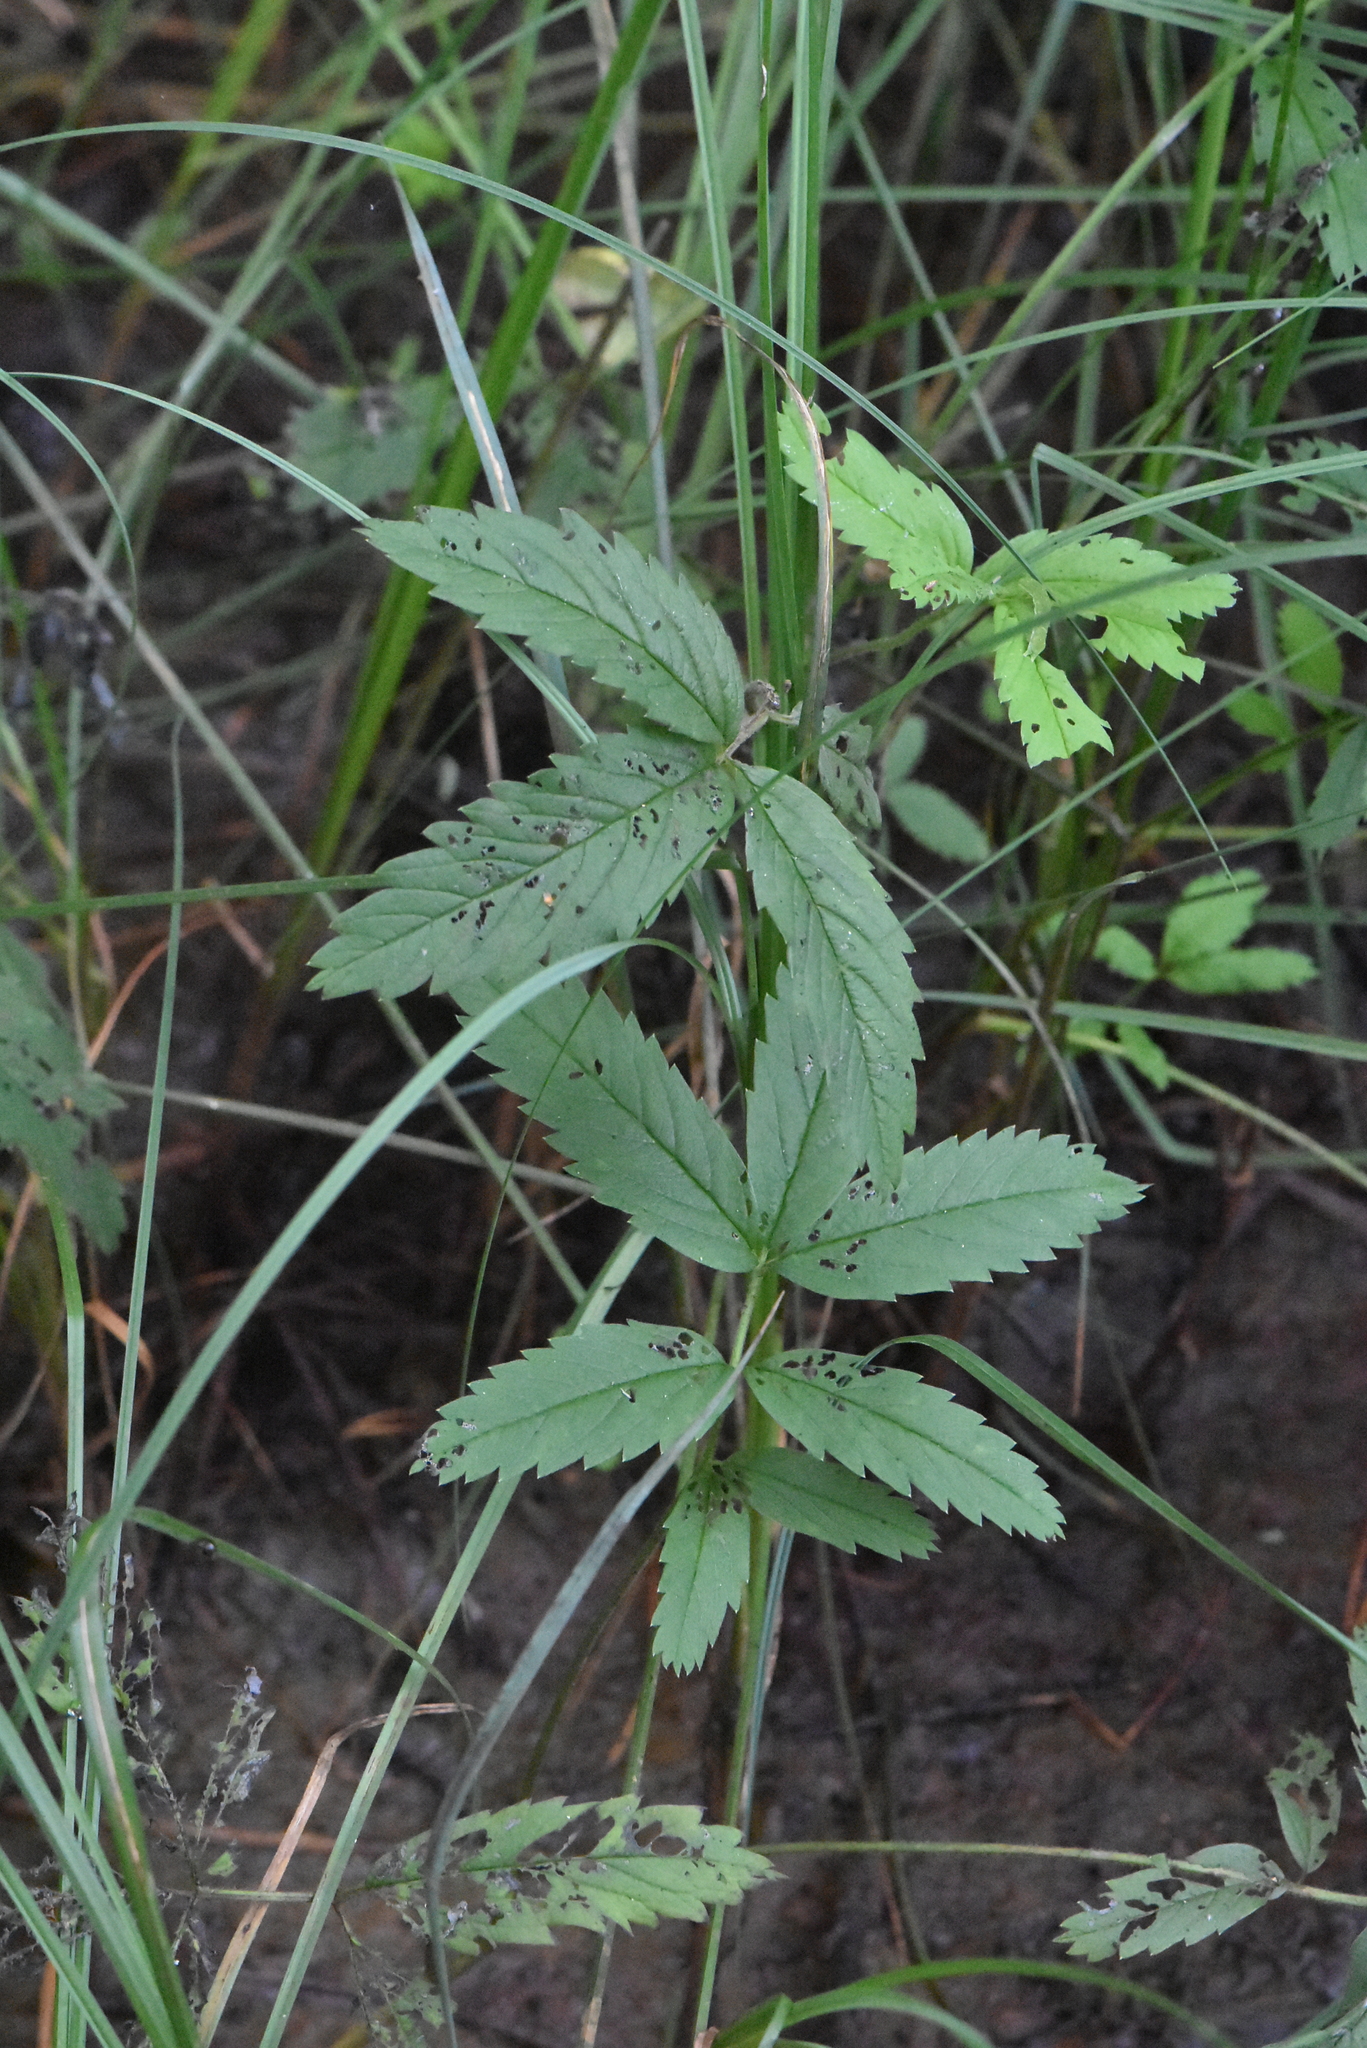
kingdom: Plantae
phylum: Tracheophyta
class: Magnoliopsida
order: Rosales
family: Rosaceae
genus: Comarum
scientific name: Comarum palustre
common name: Marsh cinquefoil
